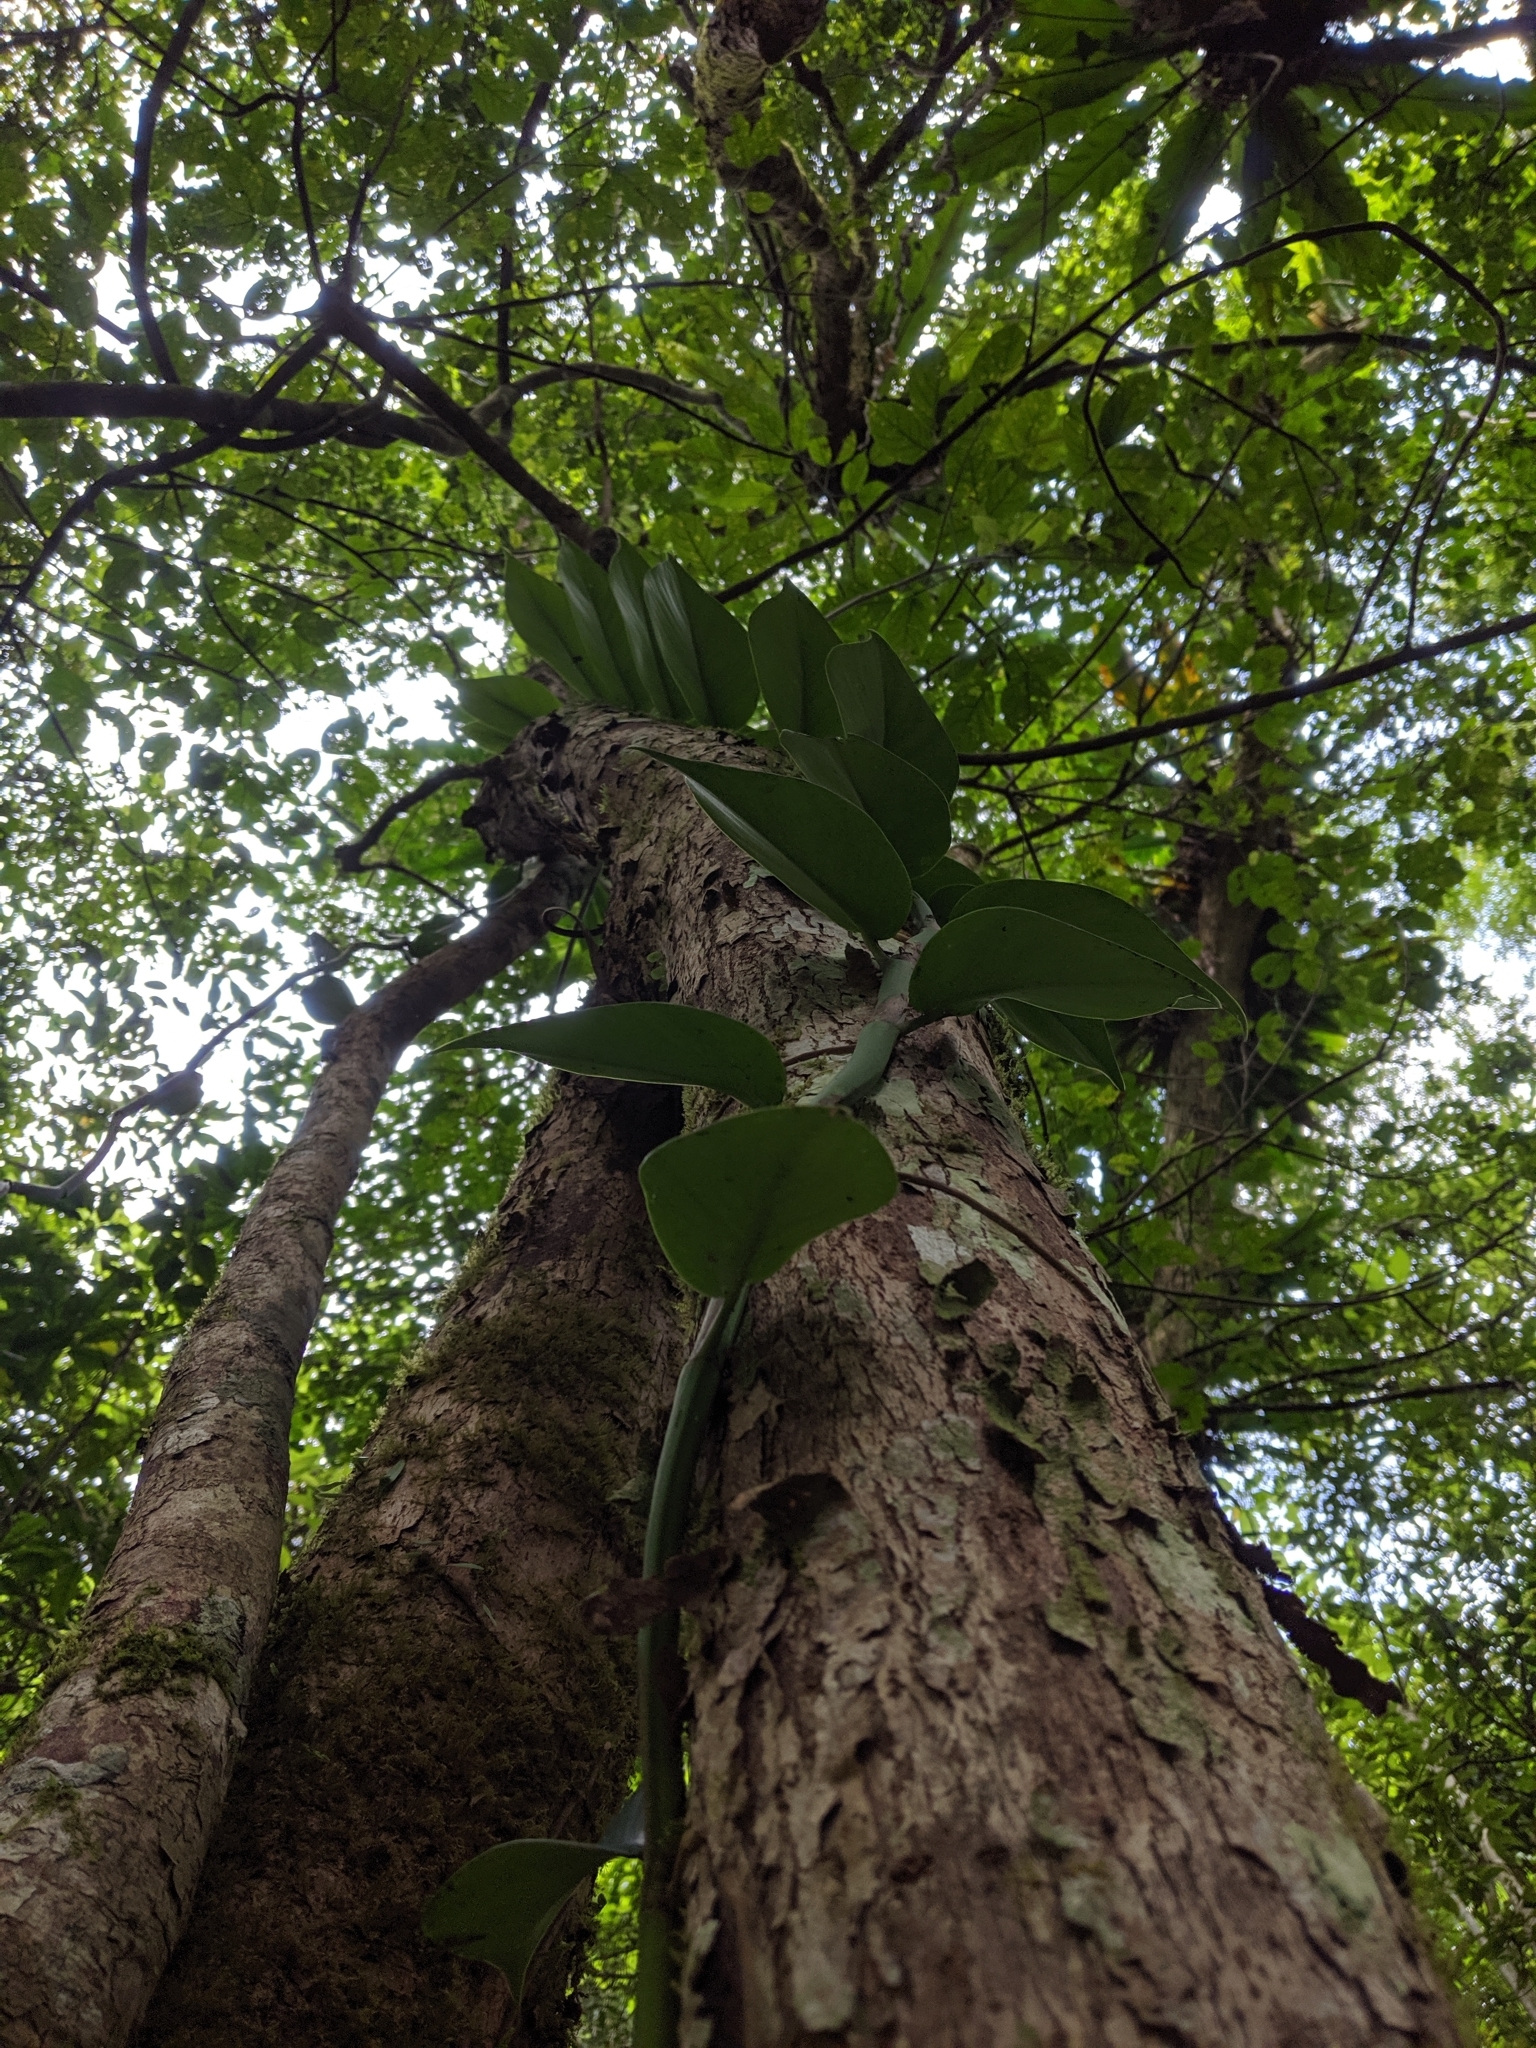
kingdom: Plantae
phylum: Tracheophyta
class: Liliopsida
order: Alismatales
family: Araceae
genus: Rhaphidophora
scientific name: Rhaphidophora hongkongensis
